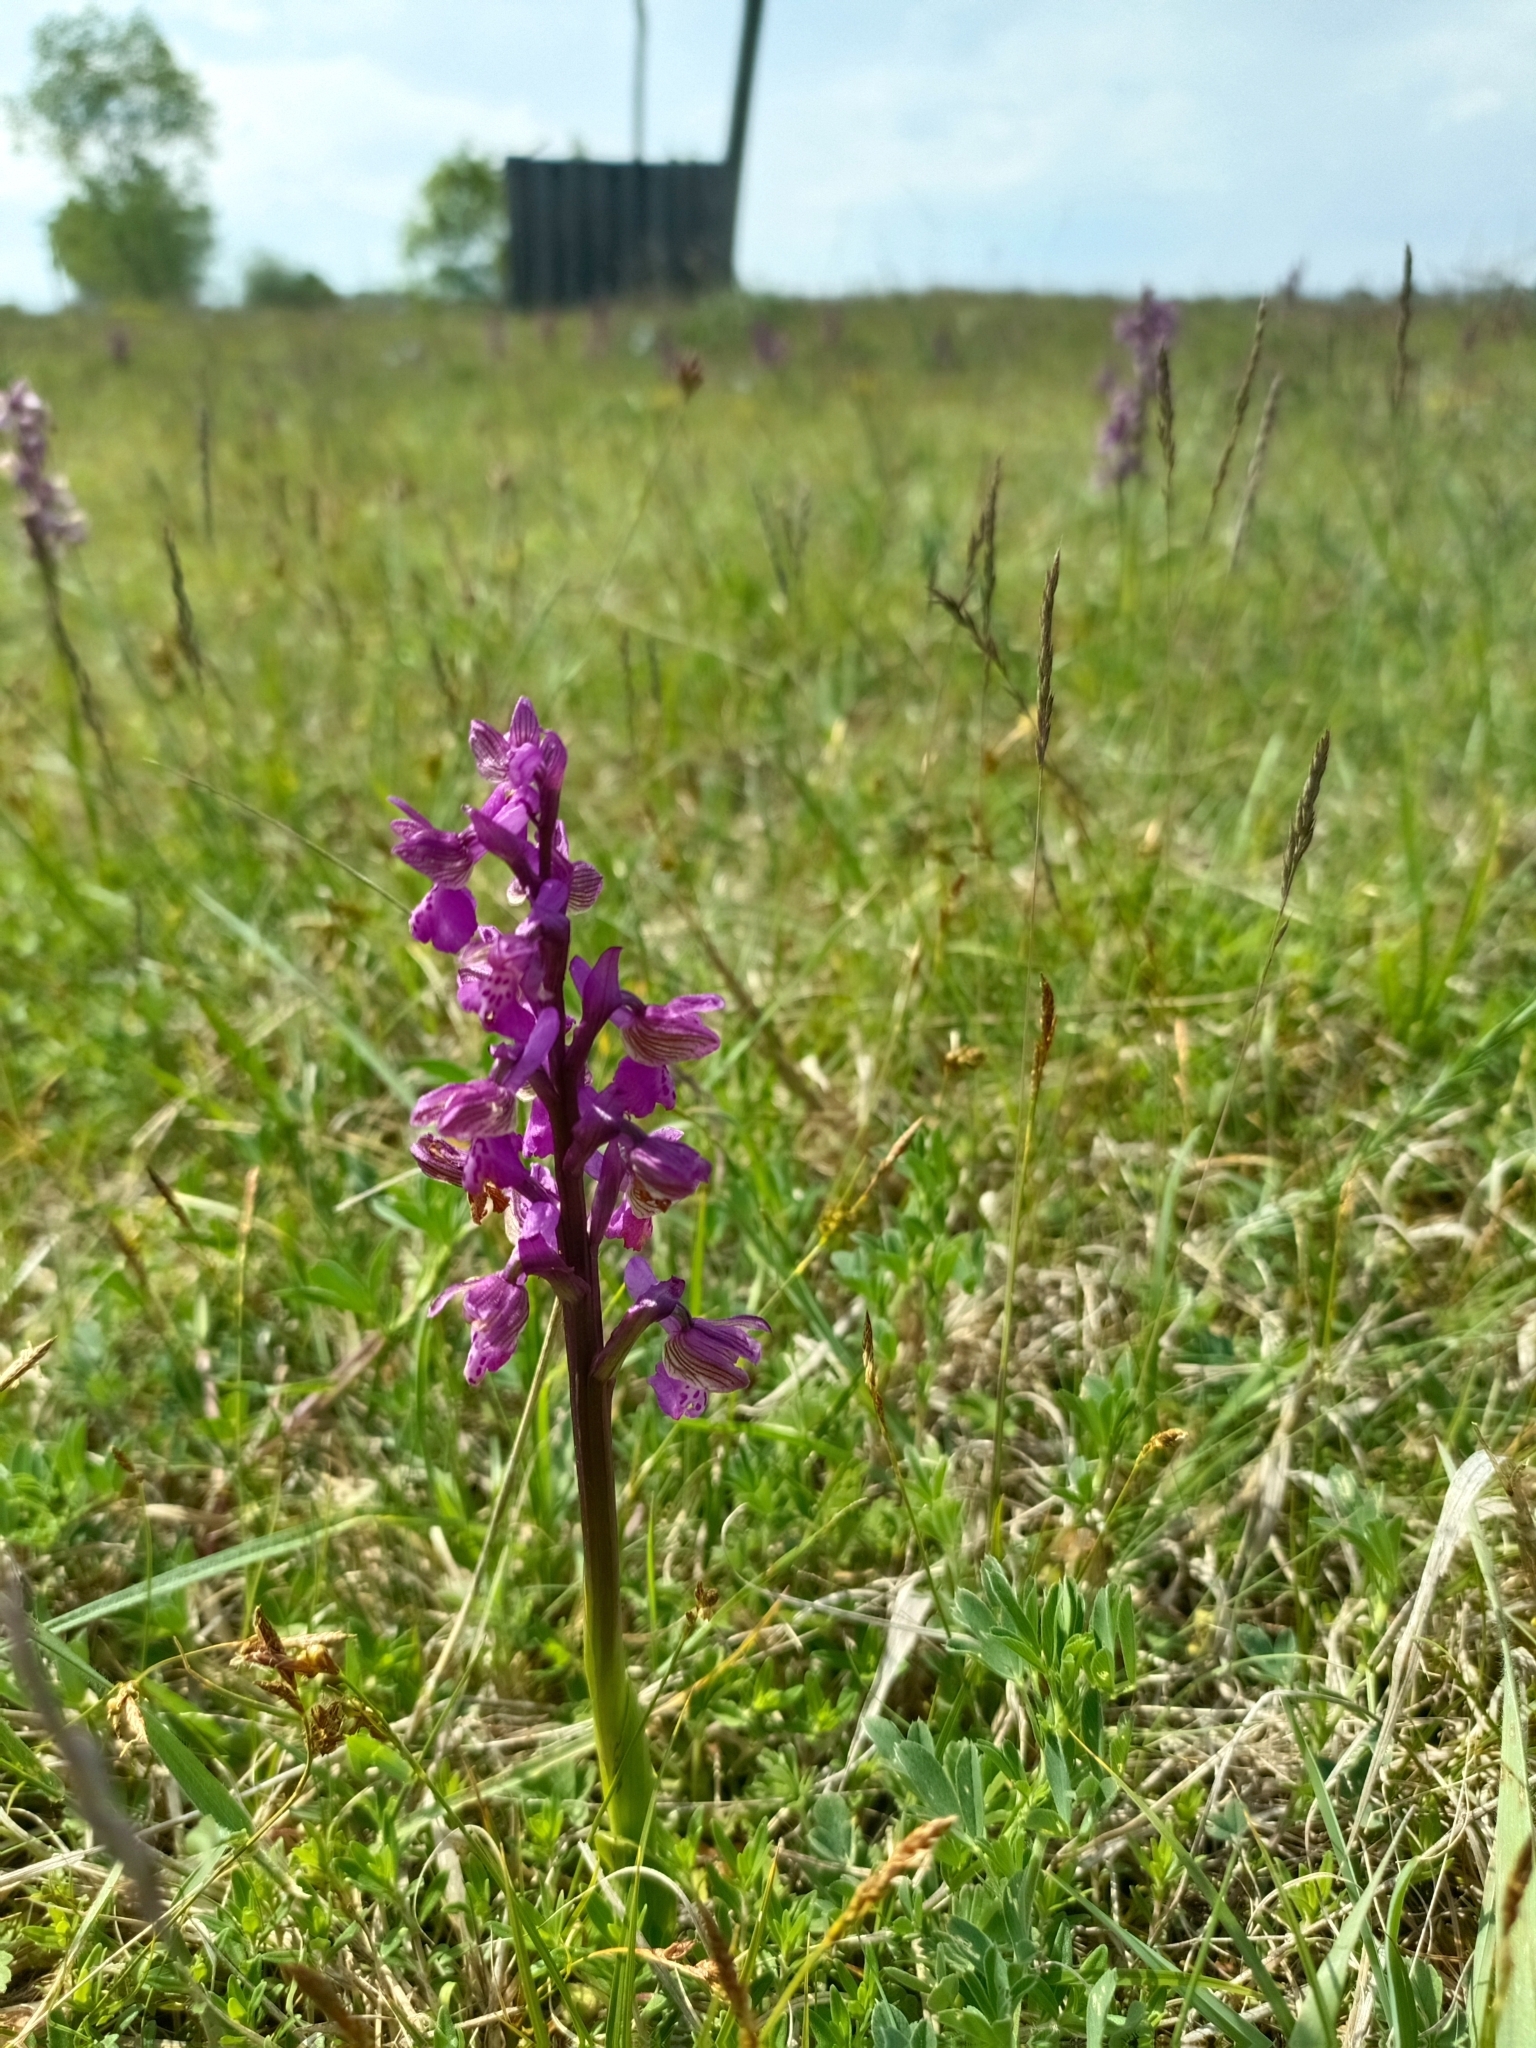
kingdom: Plantae
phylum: Tracheophyta
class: Liliopsida
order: Asparagales
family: Orchidaceae
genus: Anacamptis
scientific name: Anacamptis morio
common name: Green-winged orchid
